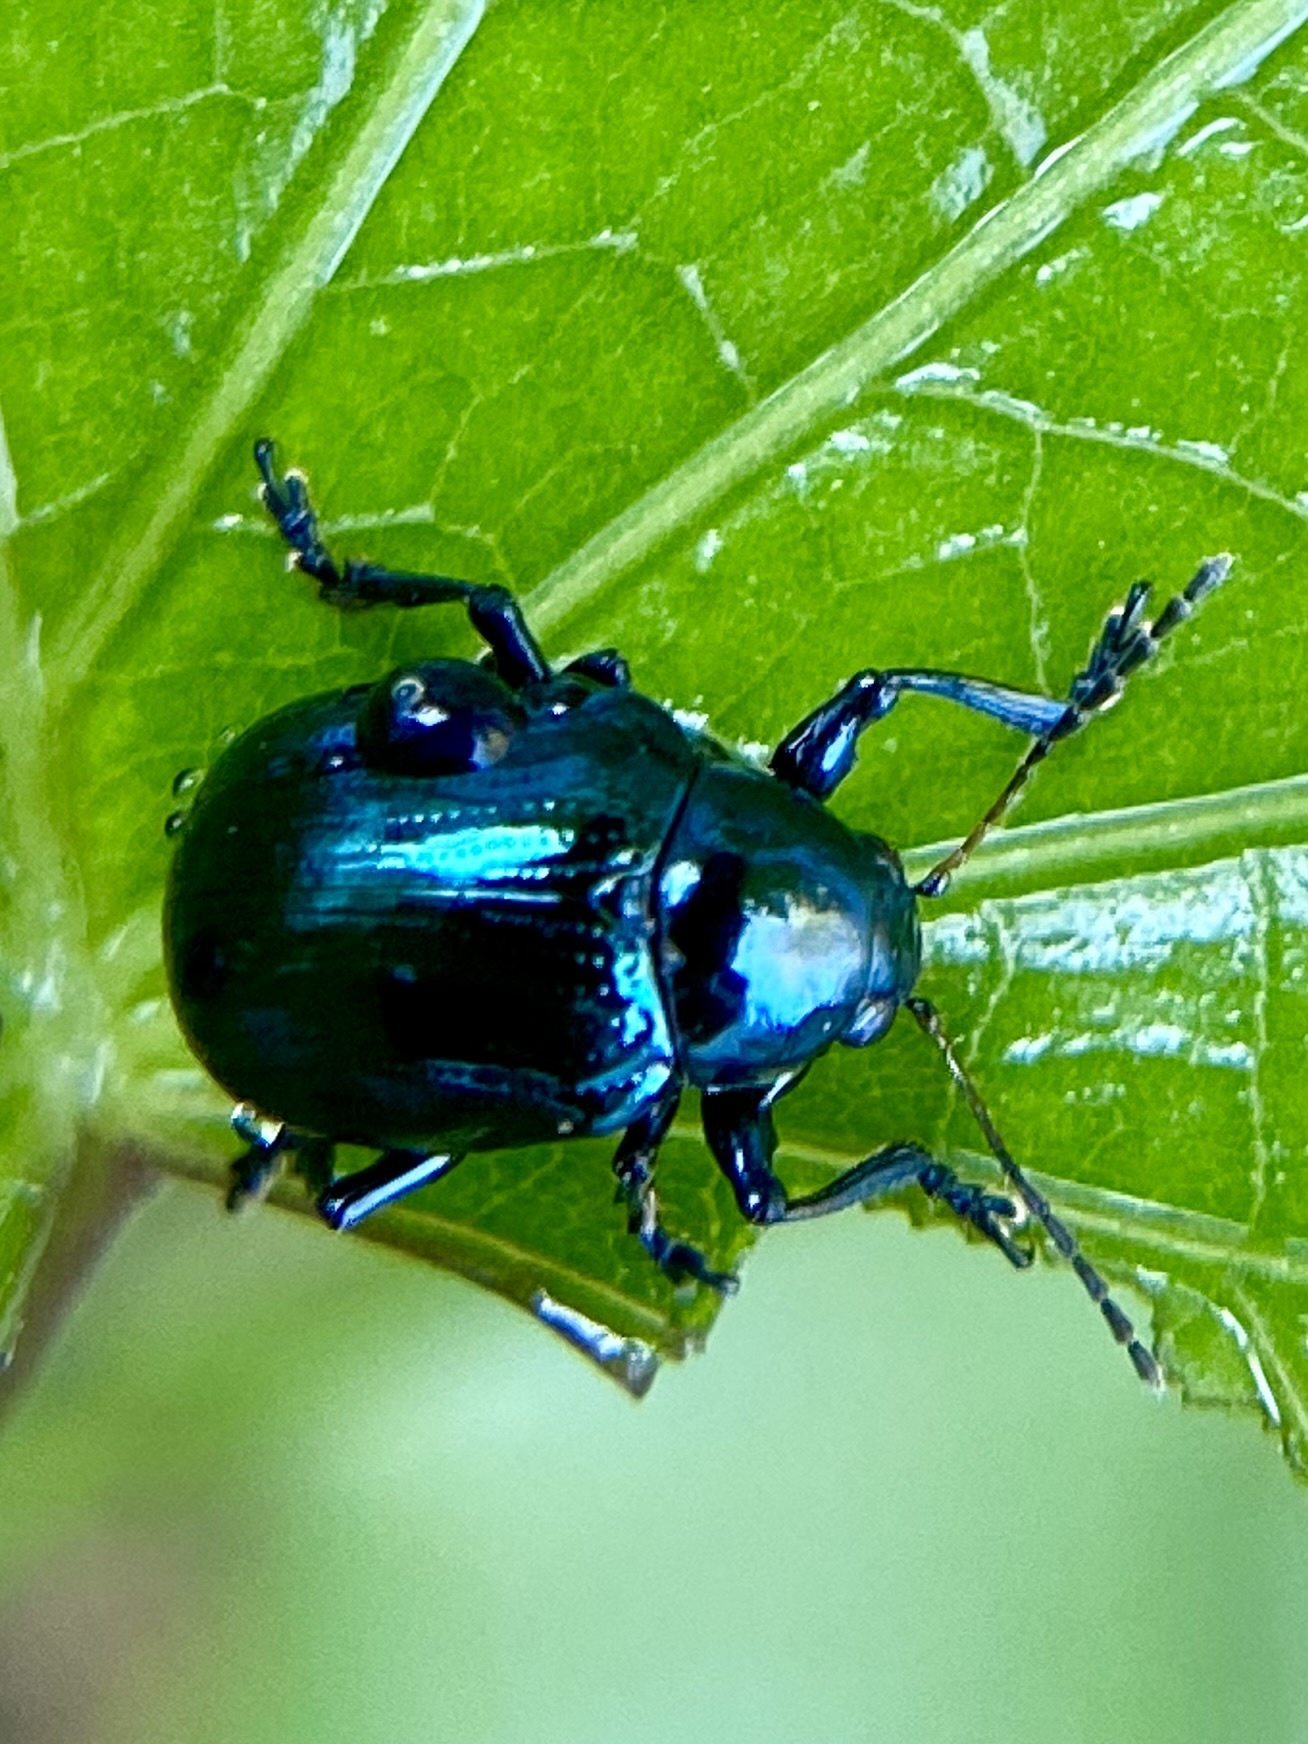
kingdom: Animalia
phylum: Arthropoda
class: Insecta
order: Coleoptera
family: Chrysomelidae
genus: Typophorus
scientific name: Typophorus nigritus
